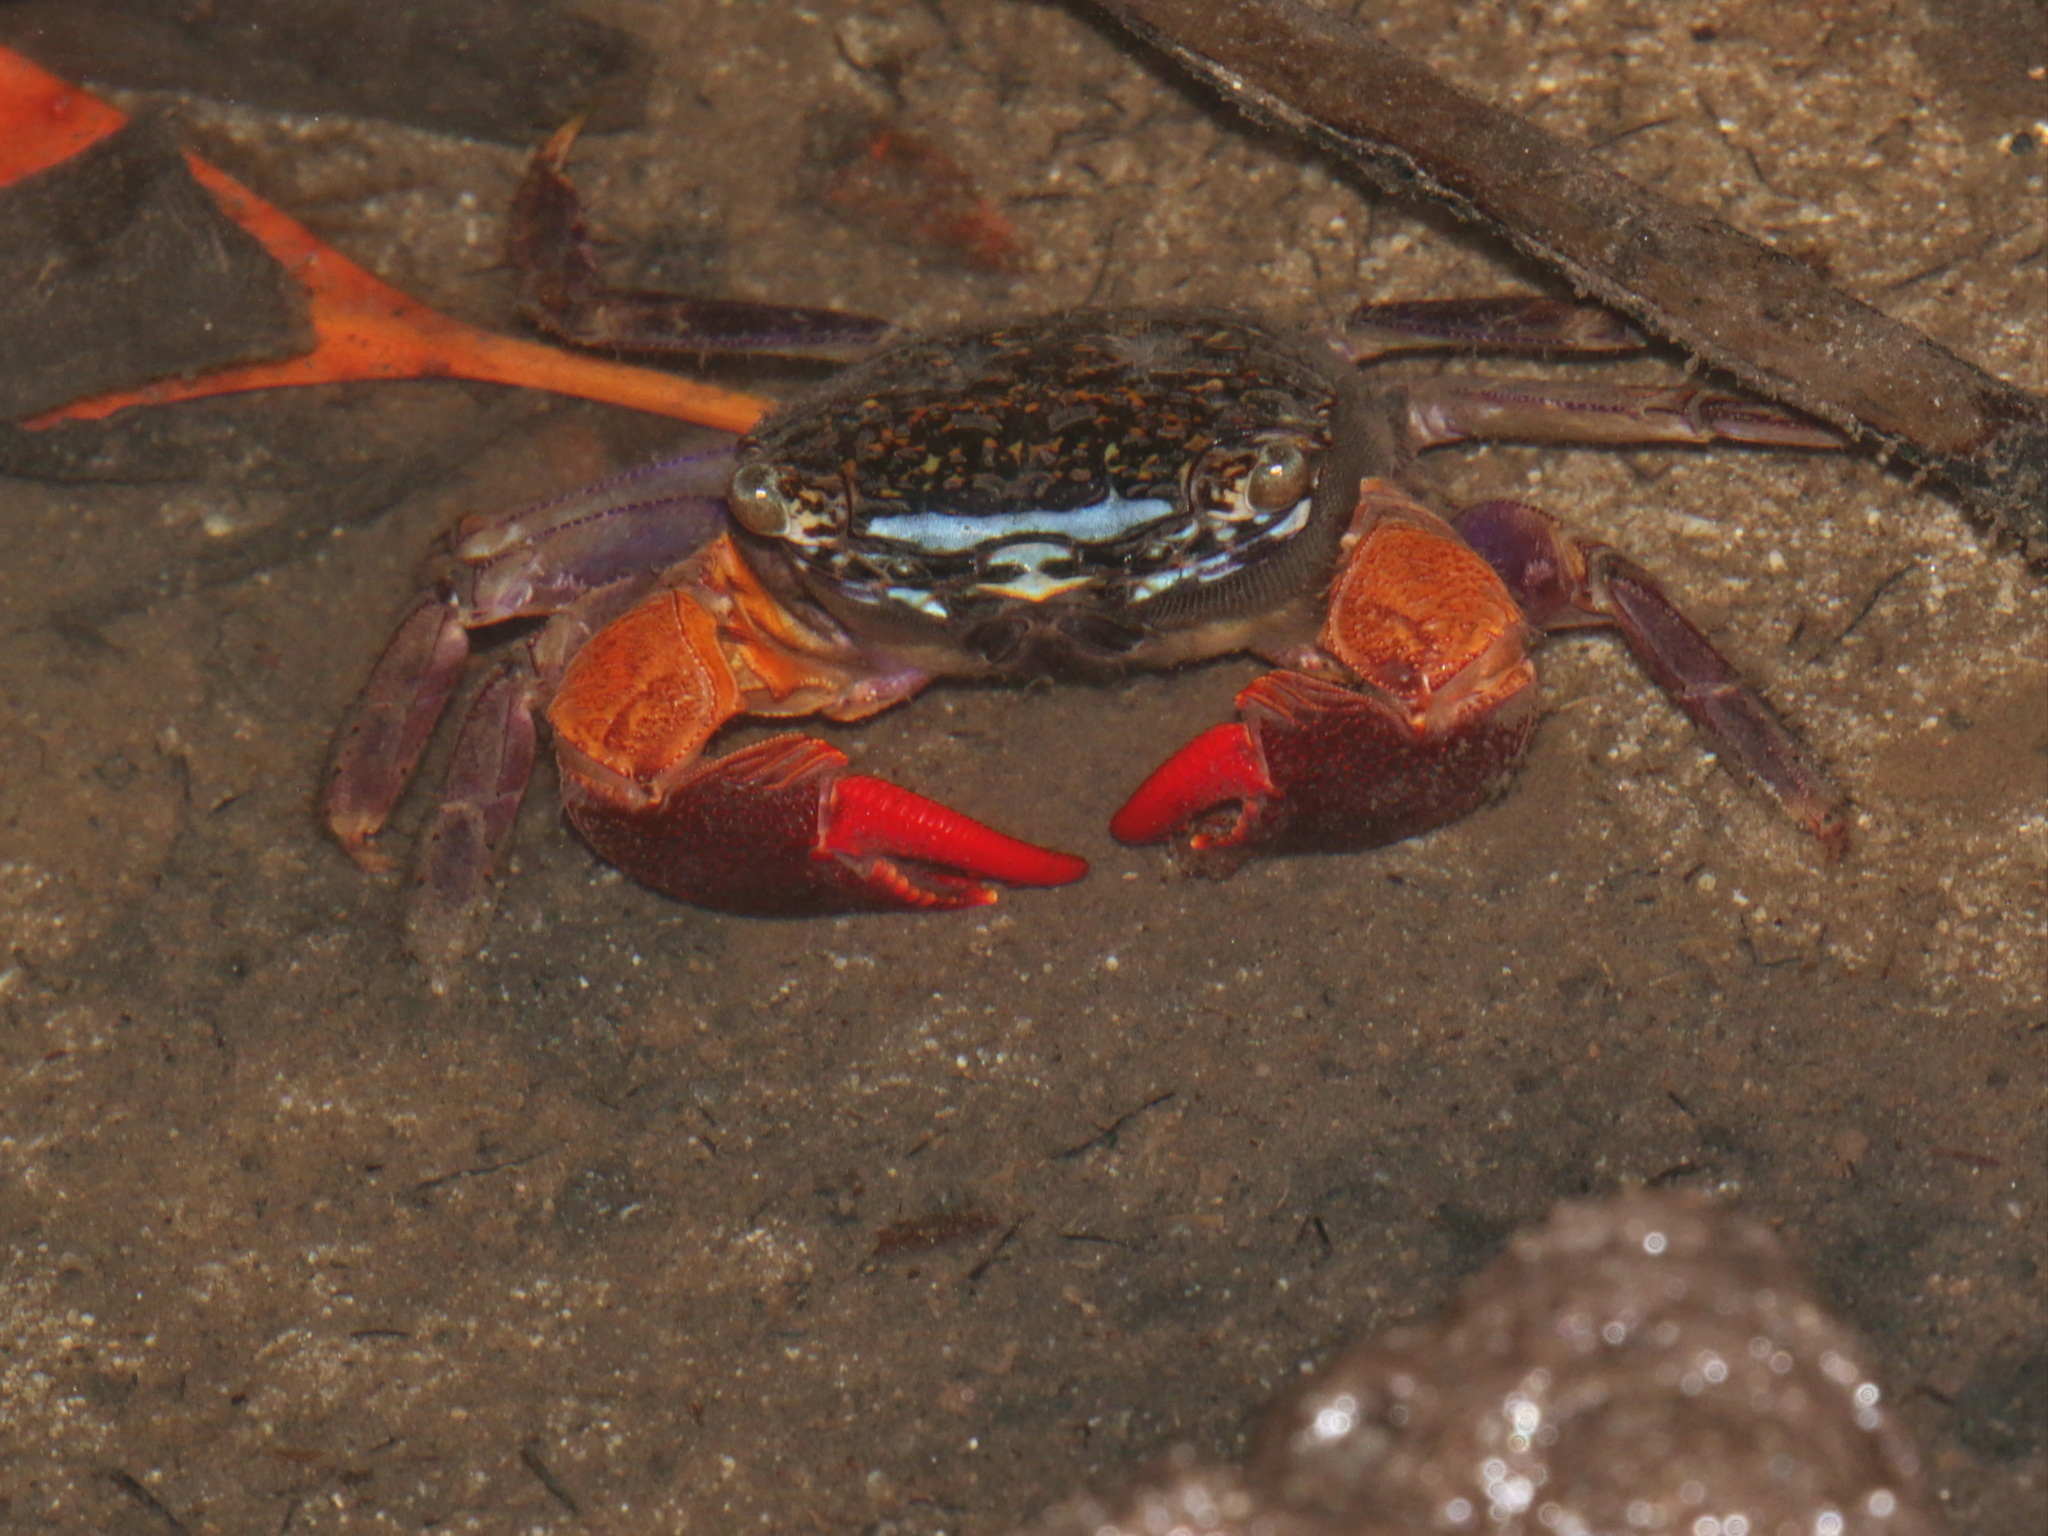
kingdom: Animalia
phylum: Arthropoda
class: Malacostraca
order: Decapoda
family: Sesarmidae
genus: Parasesarma
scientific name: Parasesarma eumolpe
